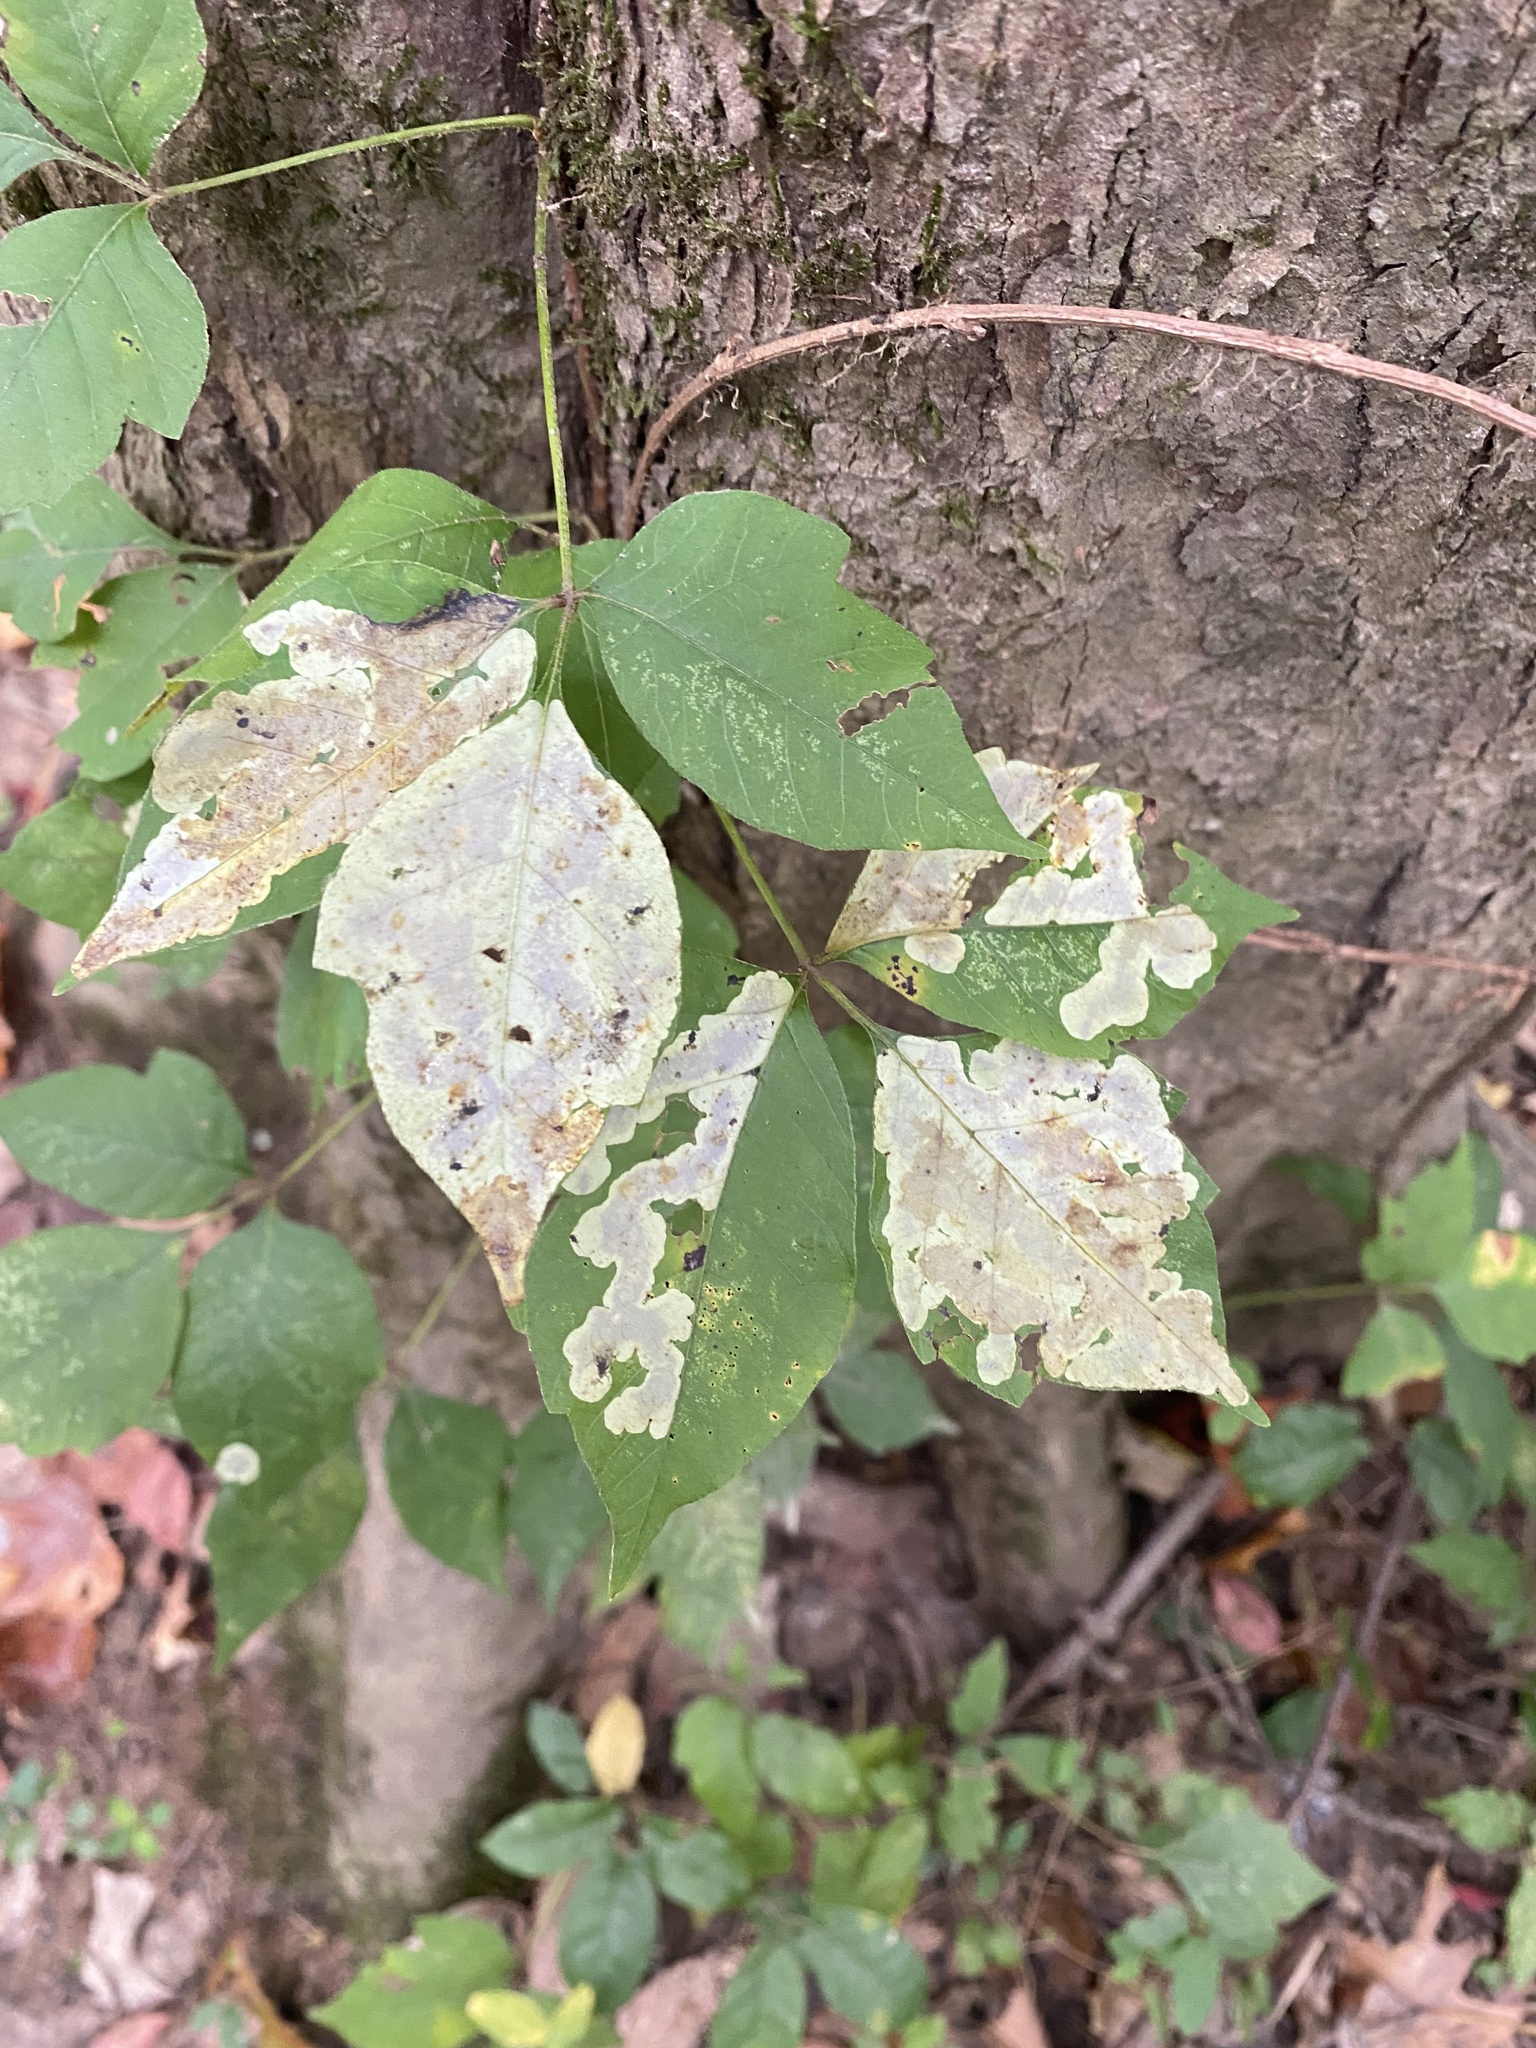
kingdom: Animalia
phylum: Arthropoda
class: Insecta
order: Lepidoptera
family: Gracillariidae
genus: Cameraria
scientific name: Cameraria guttifinitella
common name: Poison ivy leaf-miner moth
